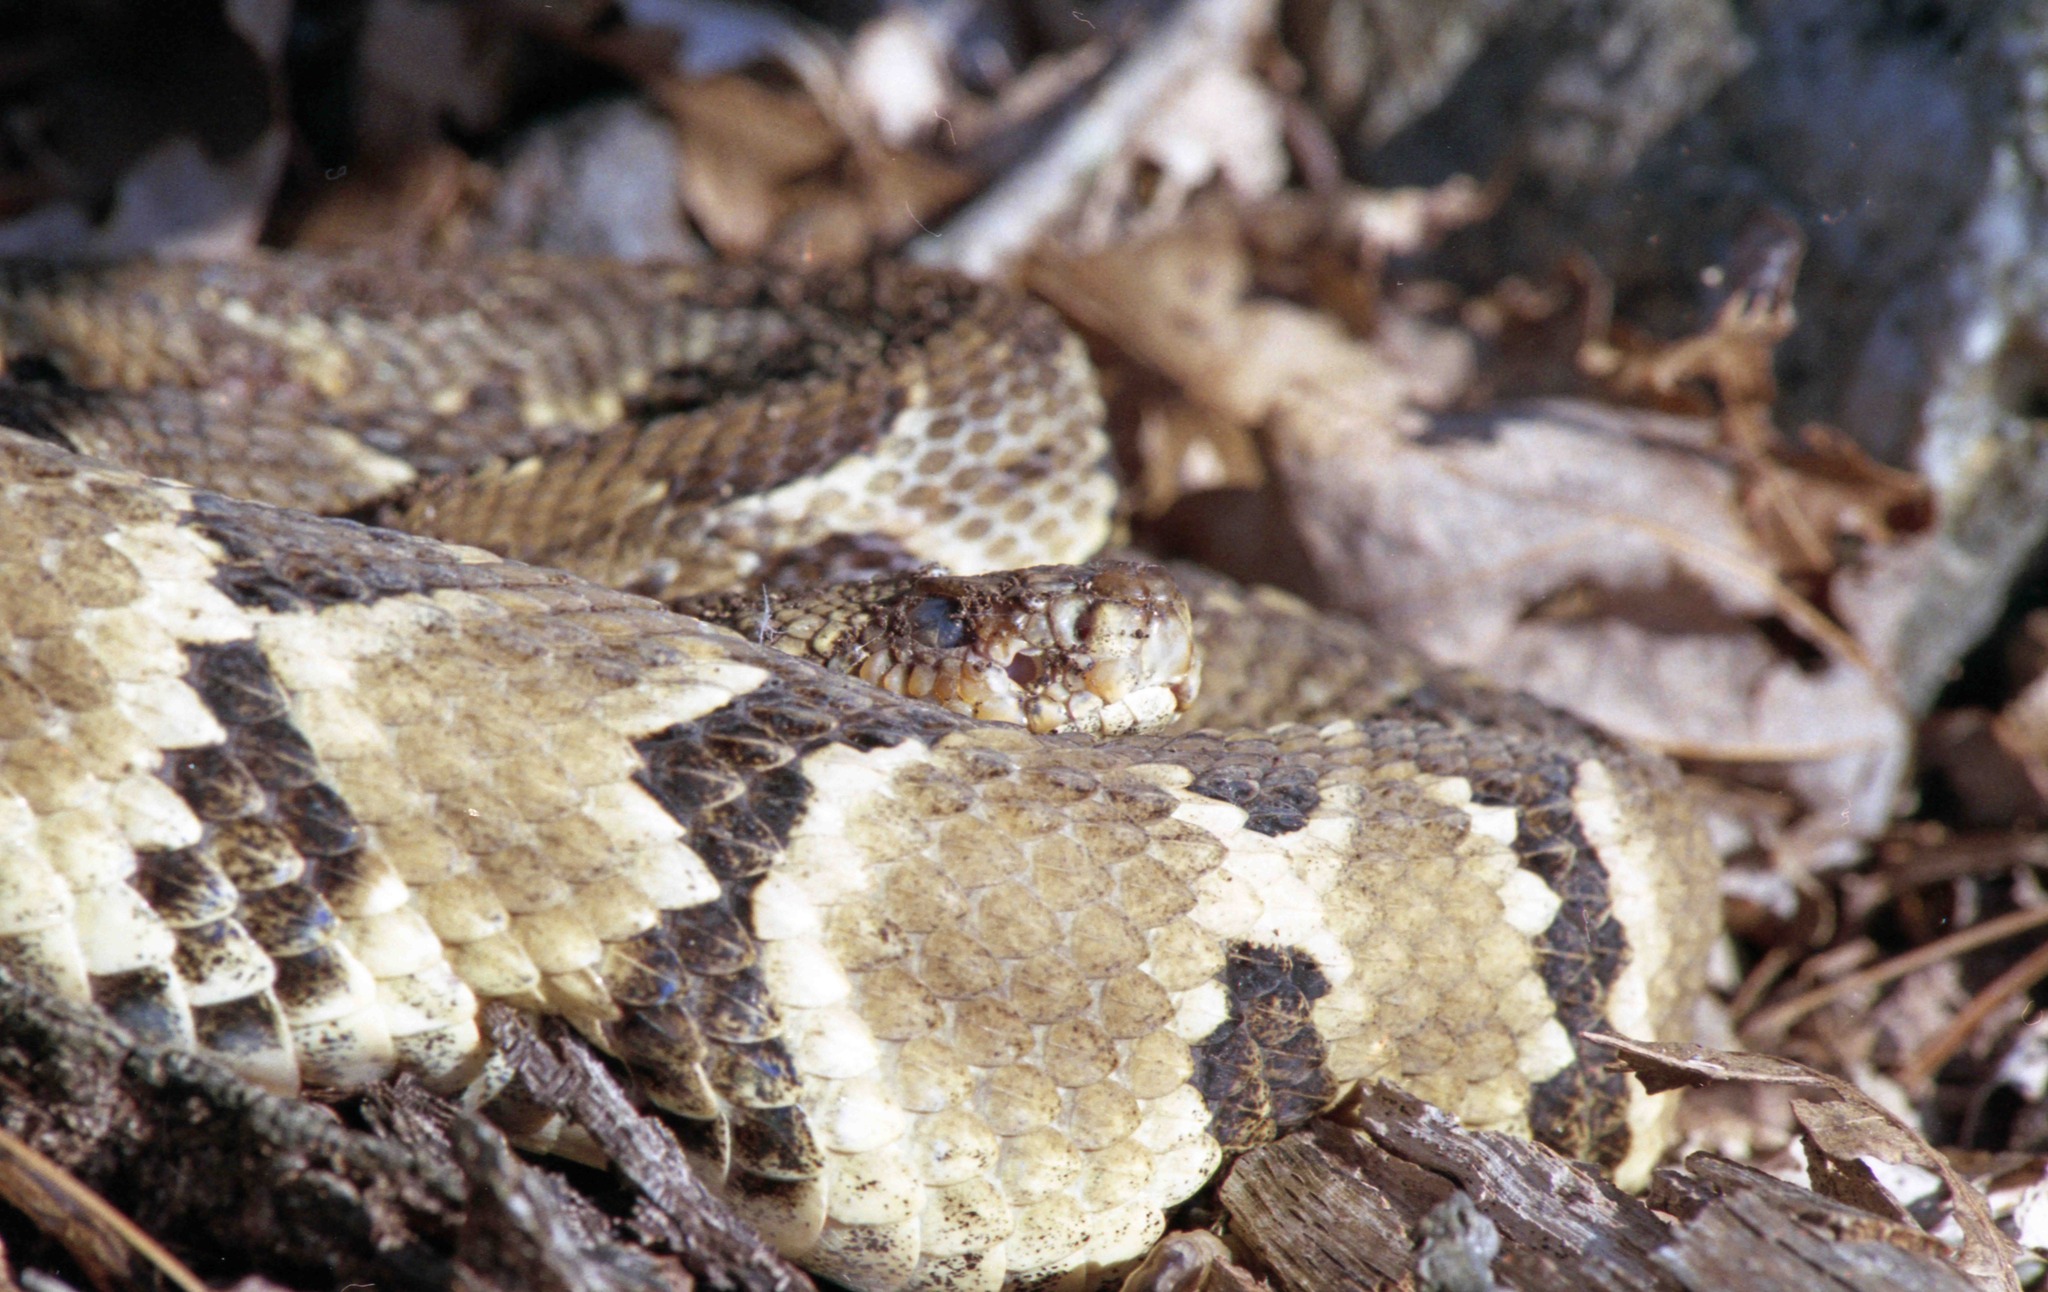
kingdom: Animalia
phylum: Chordata
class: Squamata
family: Viperidae
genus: Crotalus
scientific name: Crotalus horridus
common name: Timber rattlesnake
